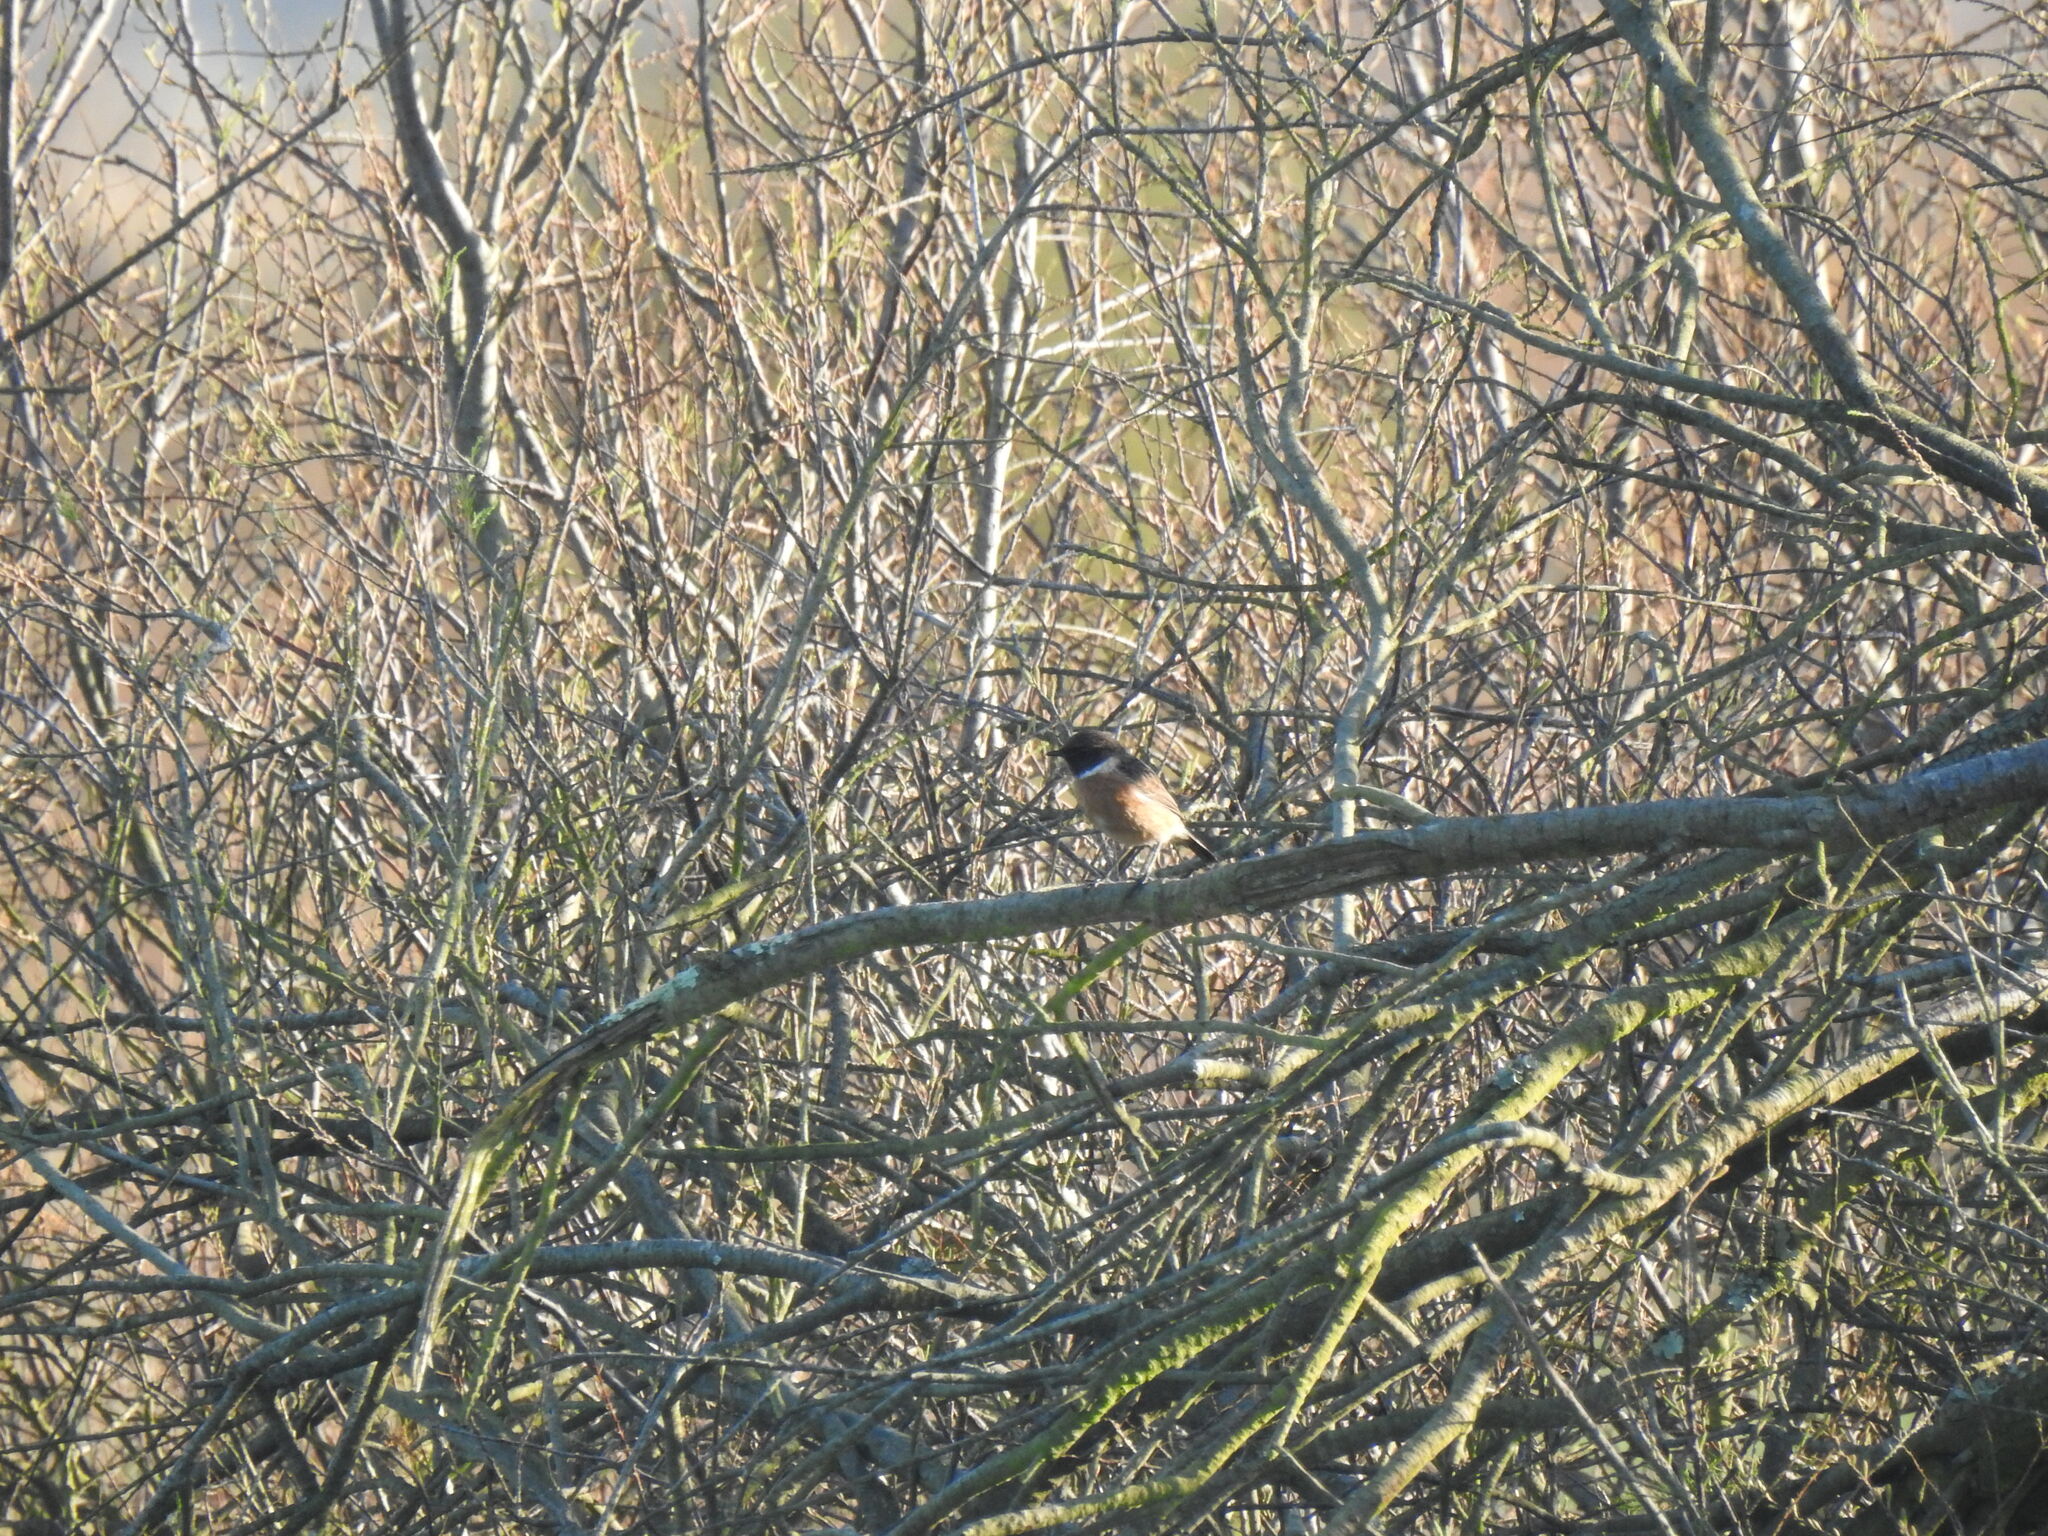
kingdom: Animalia
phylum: Chordata
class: Aves
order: Passeriformes
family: Muscicapidae
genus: Saxicola
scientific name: Saxicola rubicola
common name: European stonechat
